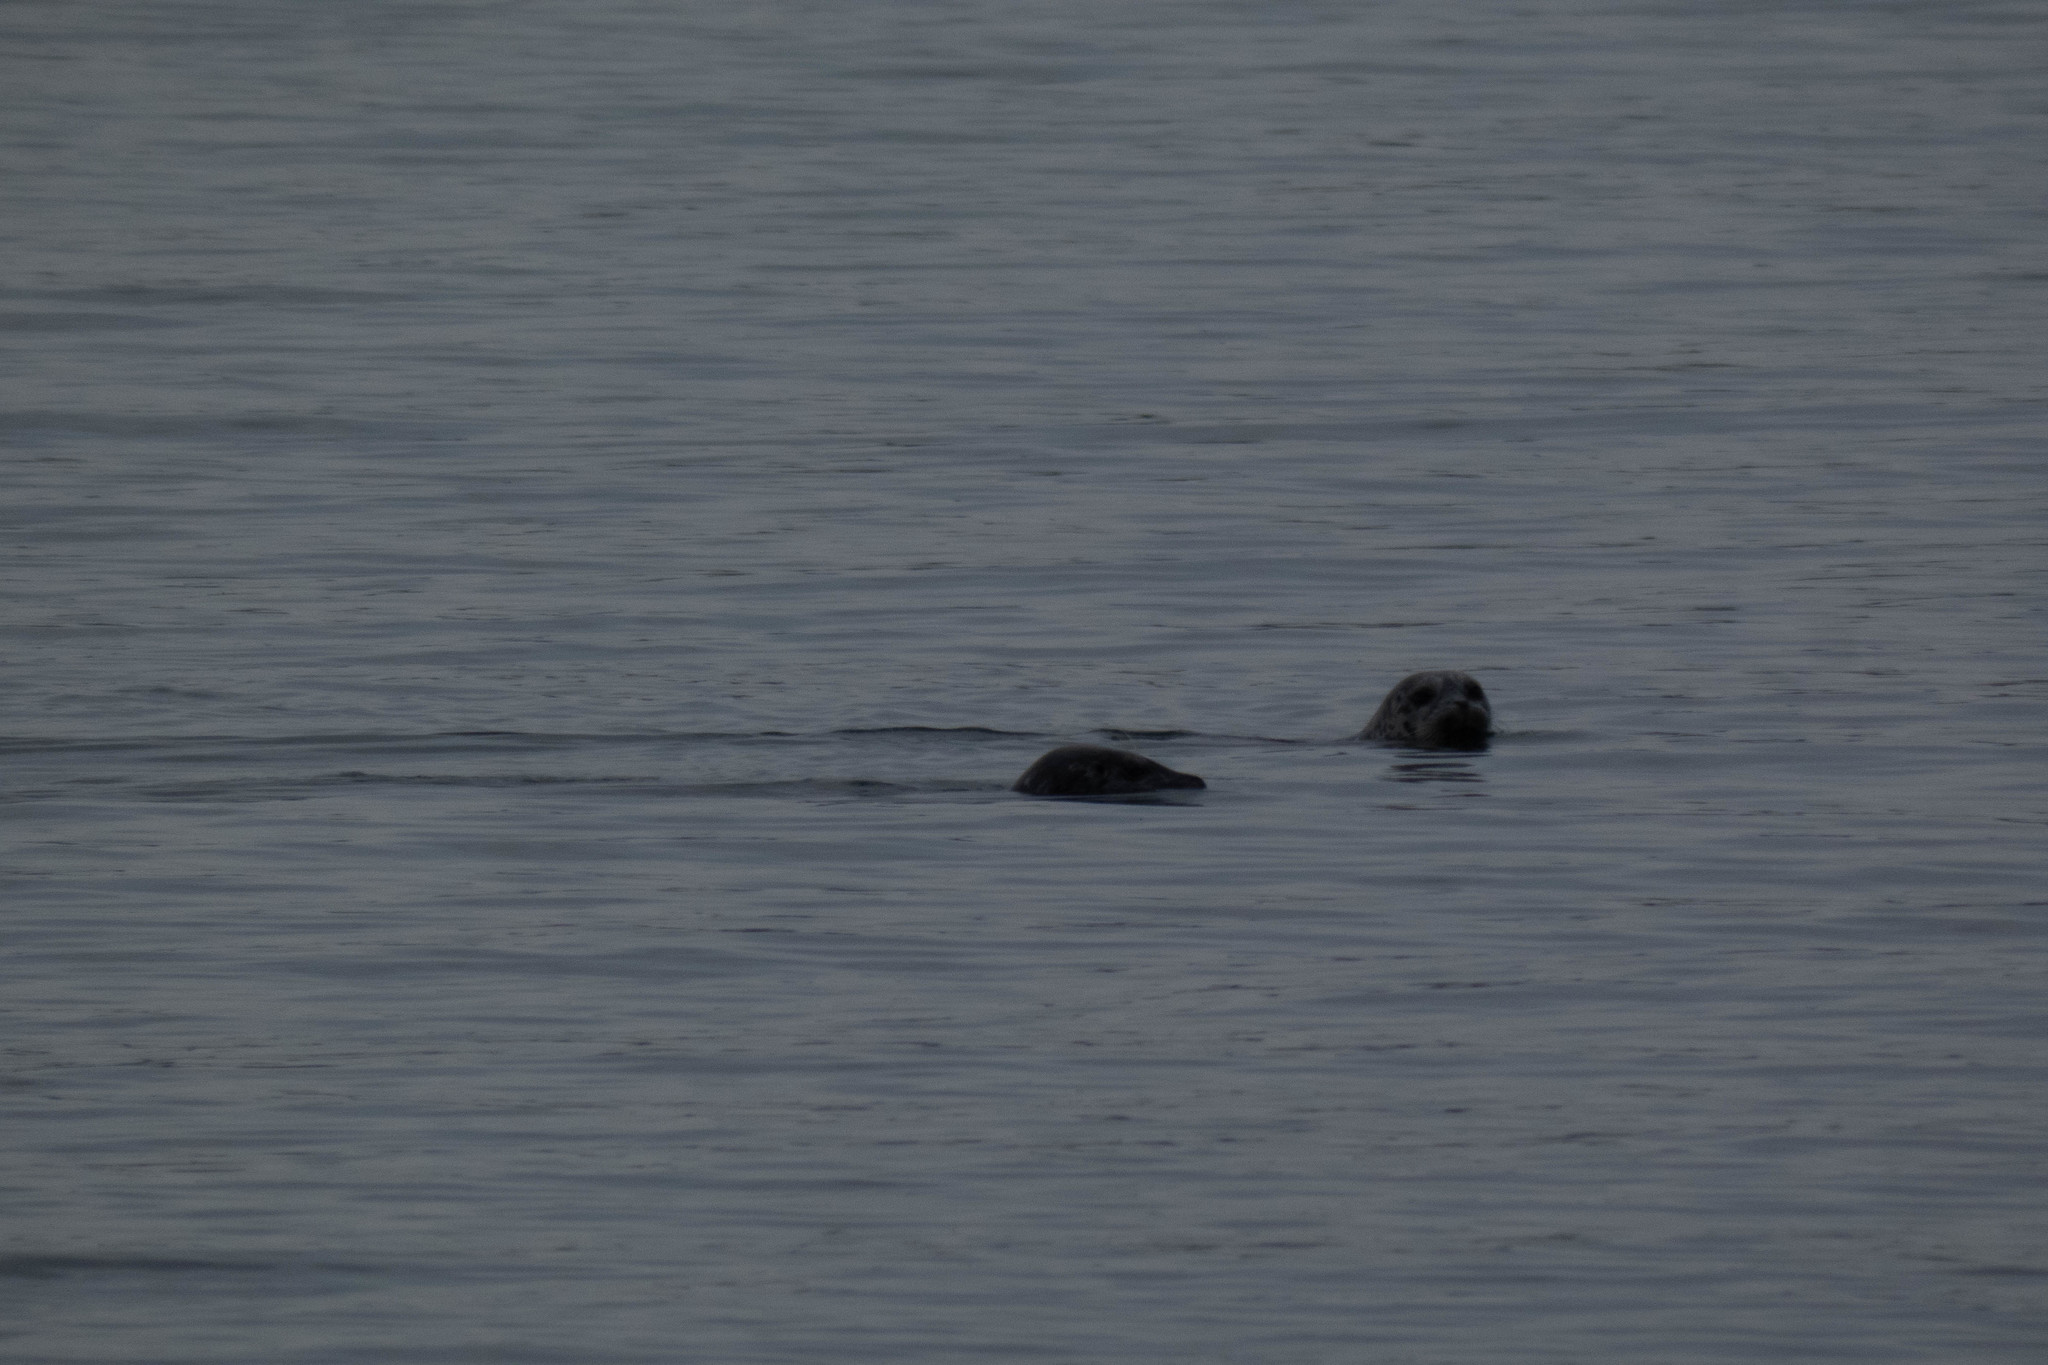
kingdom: Animalia
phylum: Chordata
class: Mammalia
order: Carnivora
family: Phocidae
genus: Phoca
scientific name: Phoca vitulina
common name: Harbor seal
